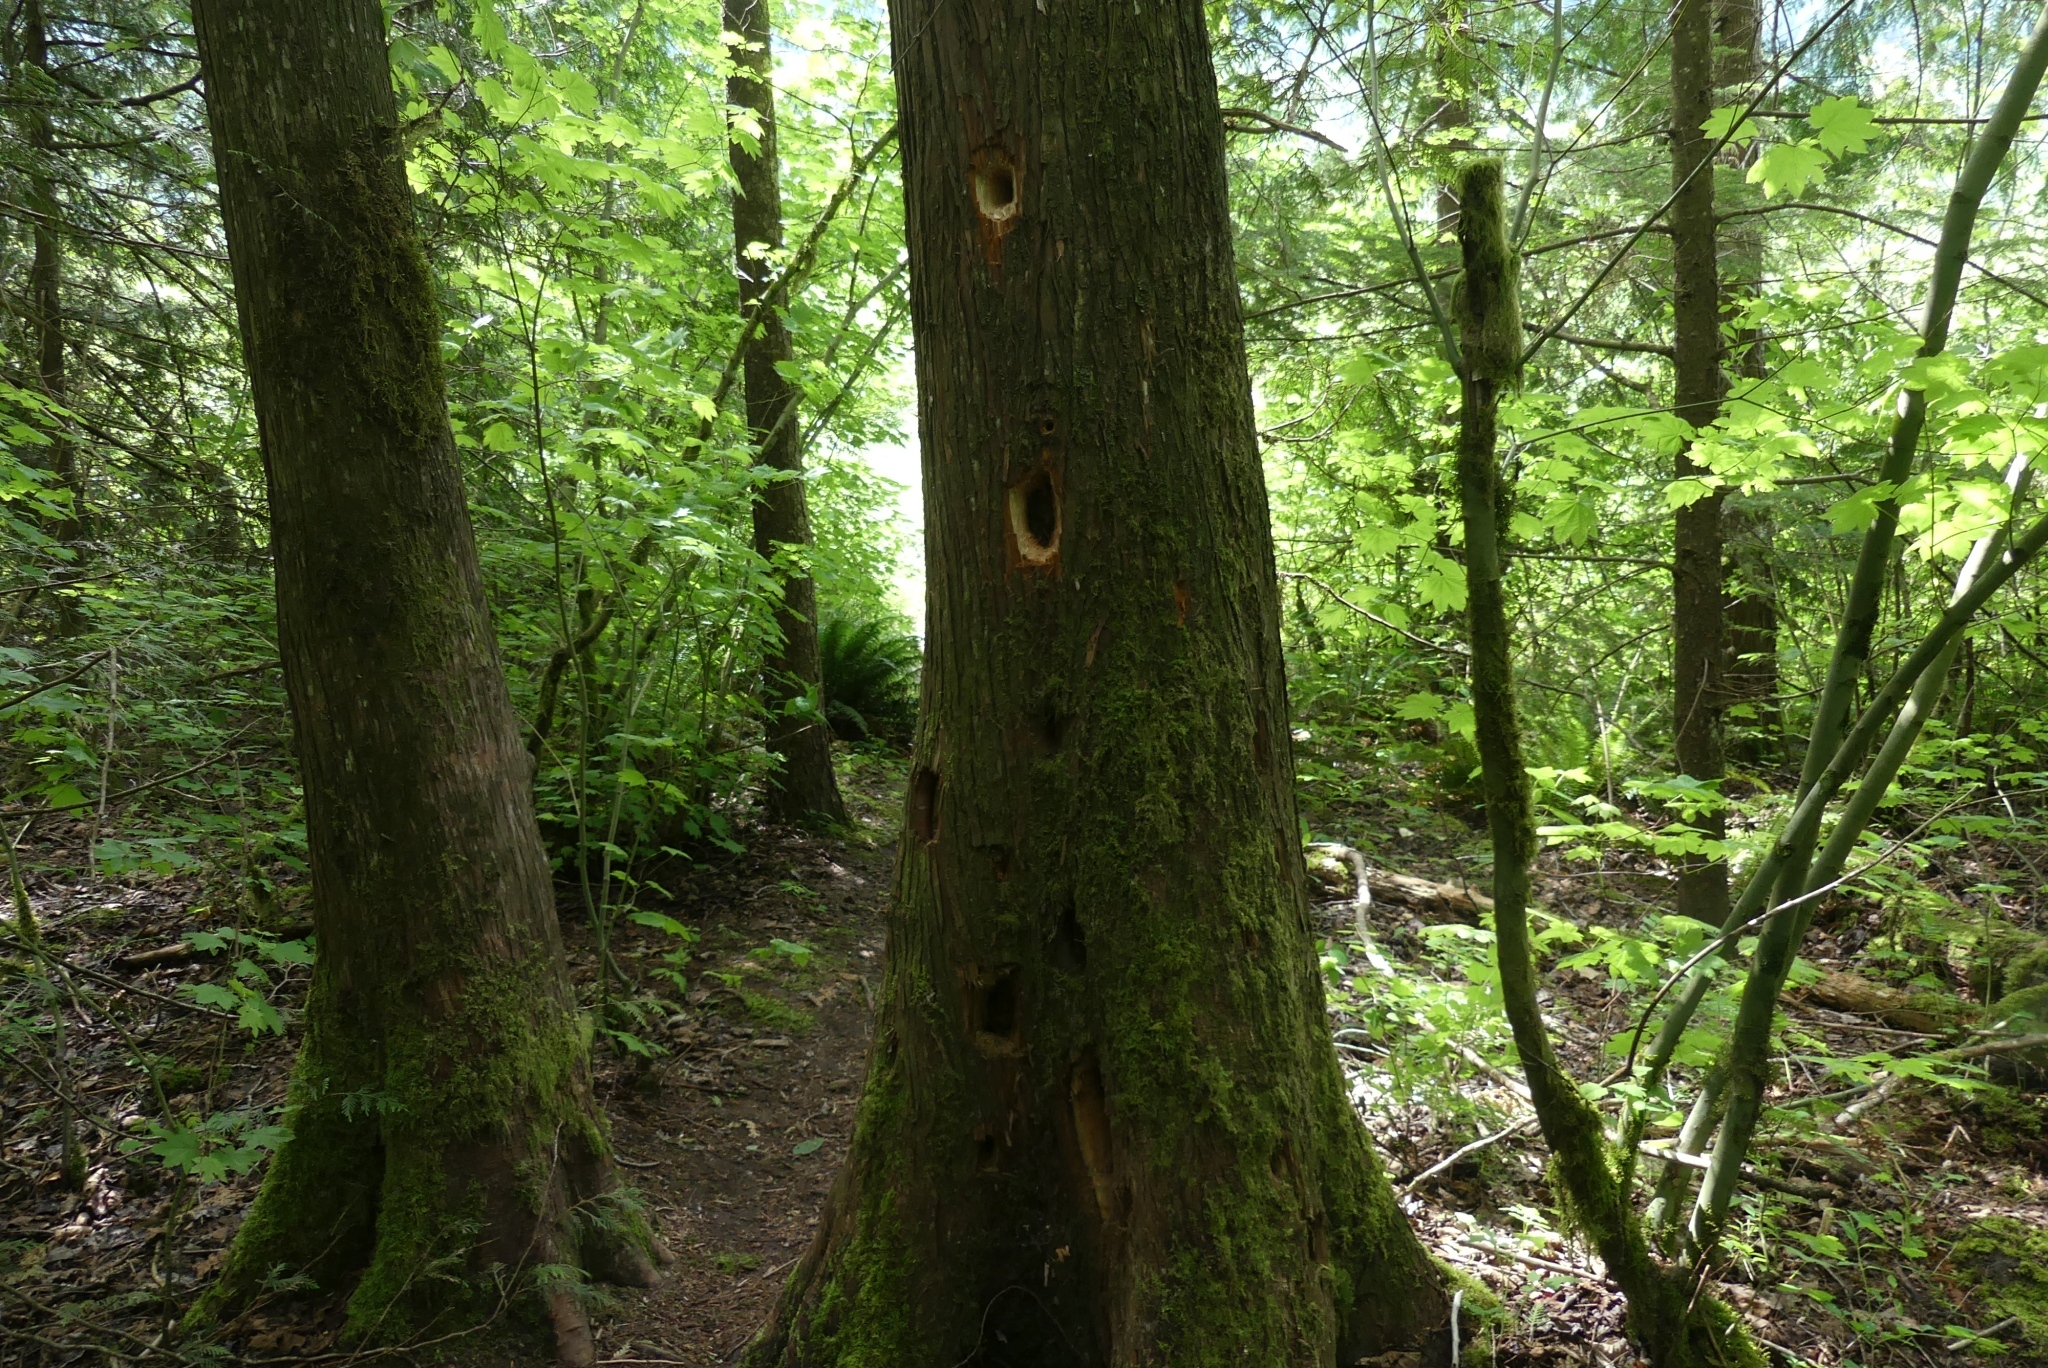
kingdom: Animalia
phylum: Chordata
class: Aves
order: Piciformes
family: Picidae
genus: Dryocopus
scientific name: Dryocopus pileatus
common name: Pileated woodpecker
